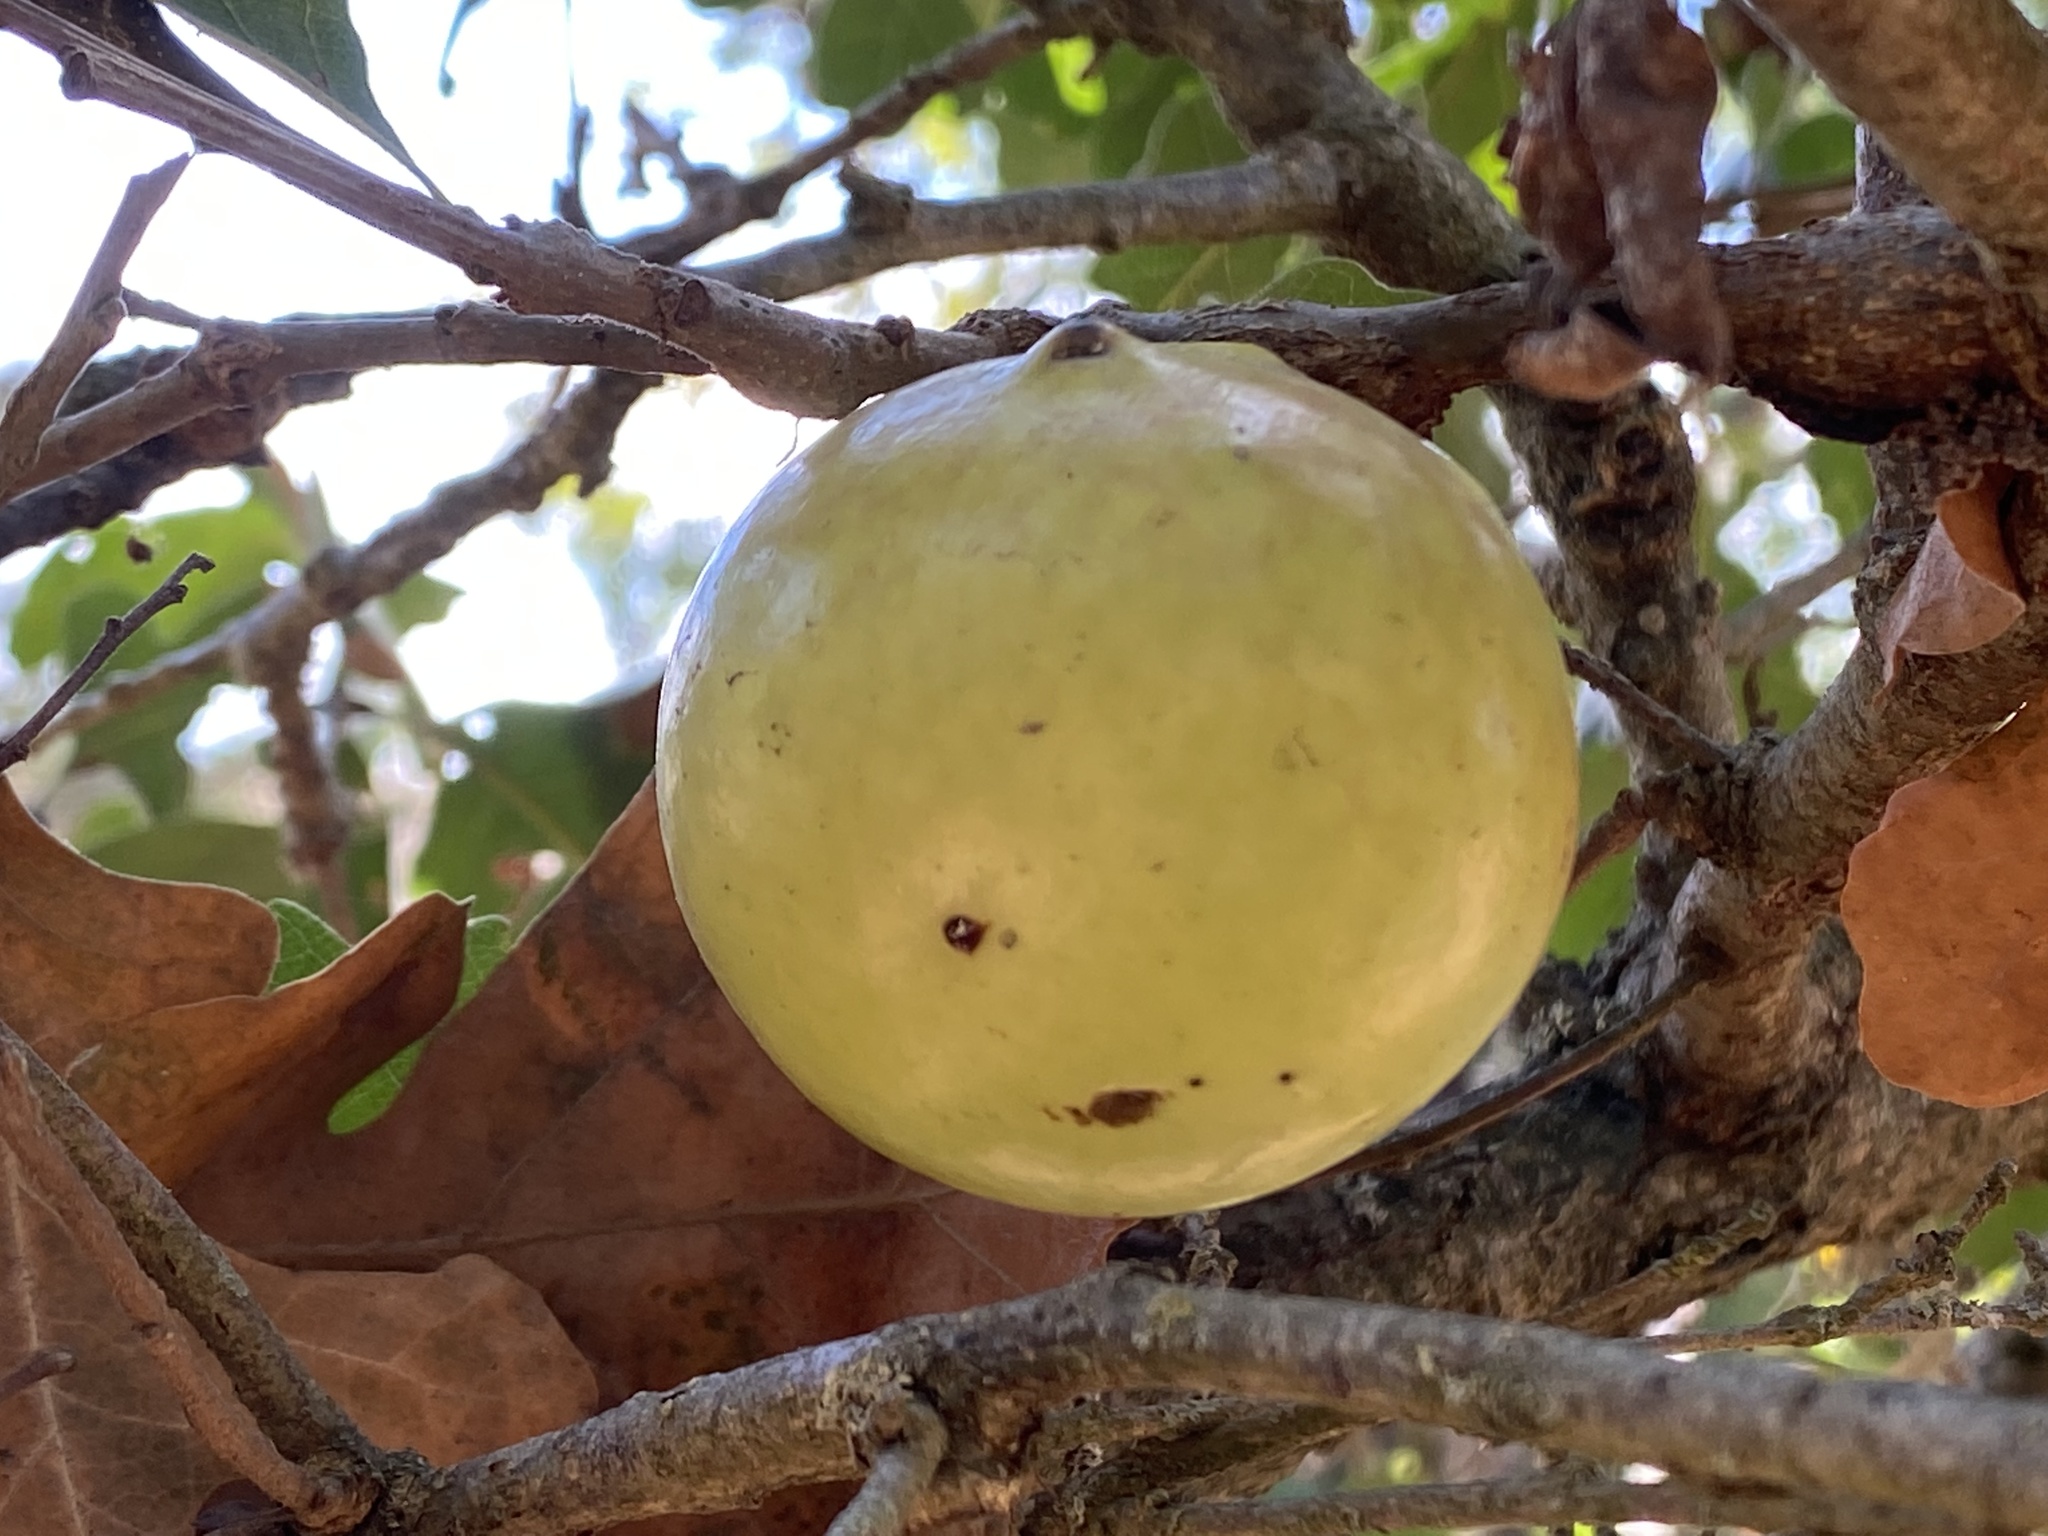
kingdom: Animalia
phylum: Arthropoda
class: Insecta
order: Hymenoptera
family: Cynipidae
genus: Andricus
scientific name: Andricus quercuscalifornicus
